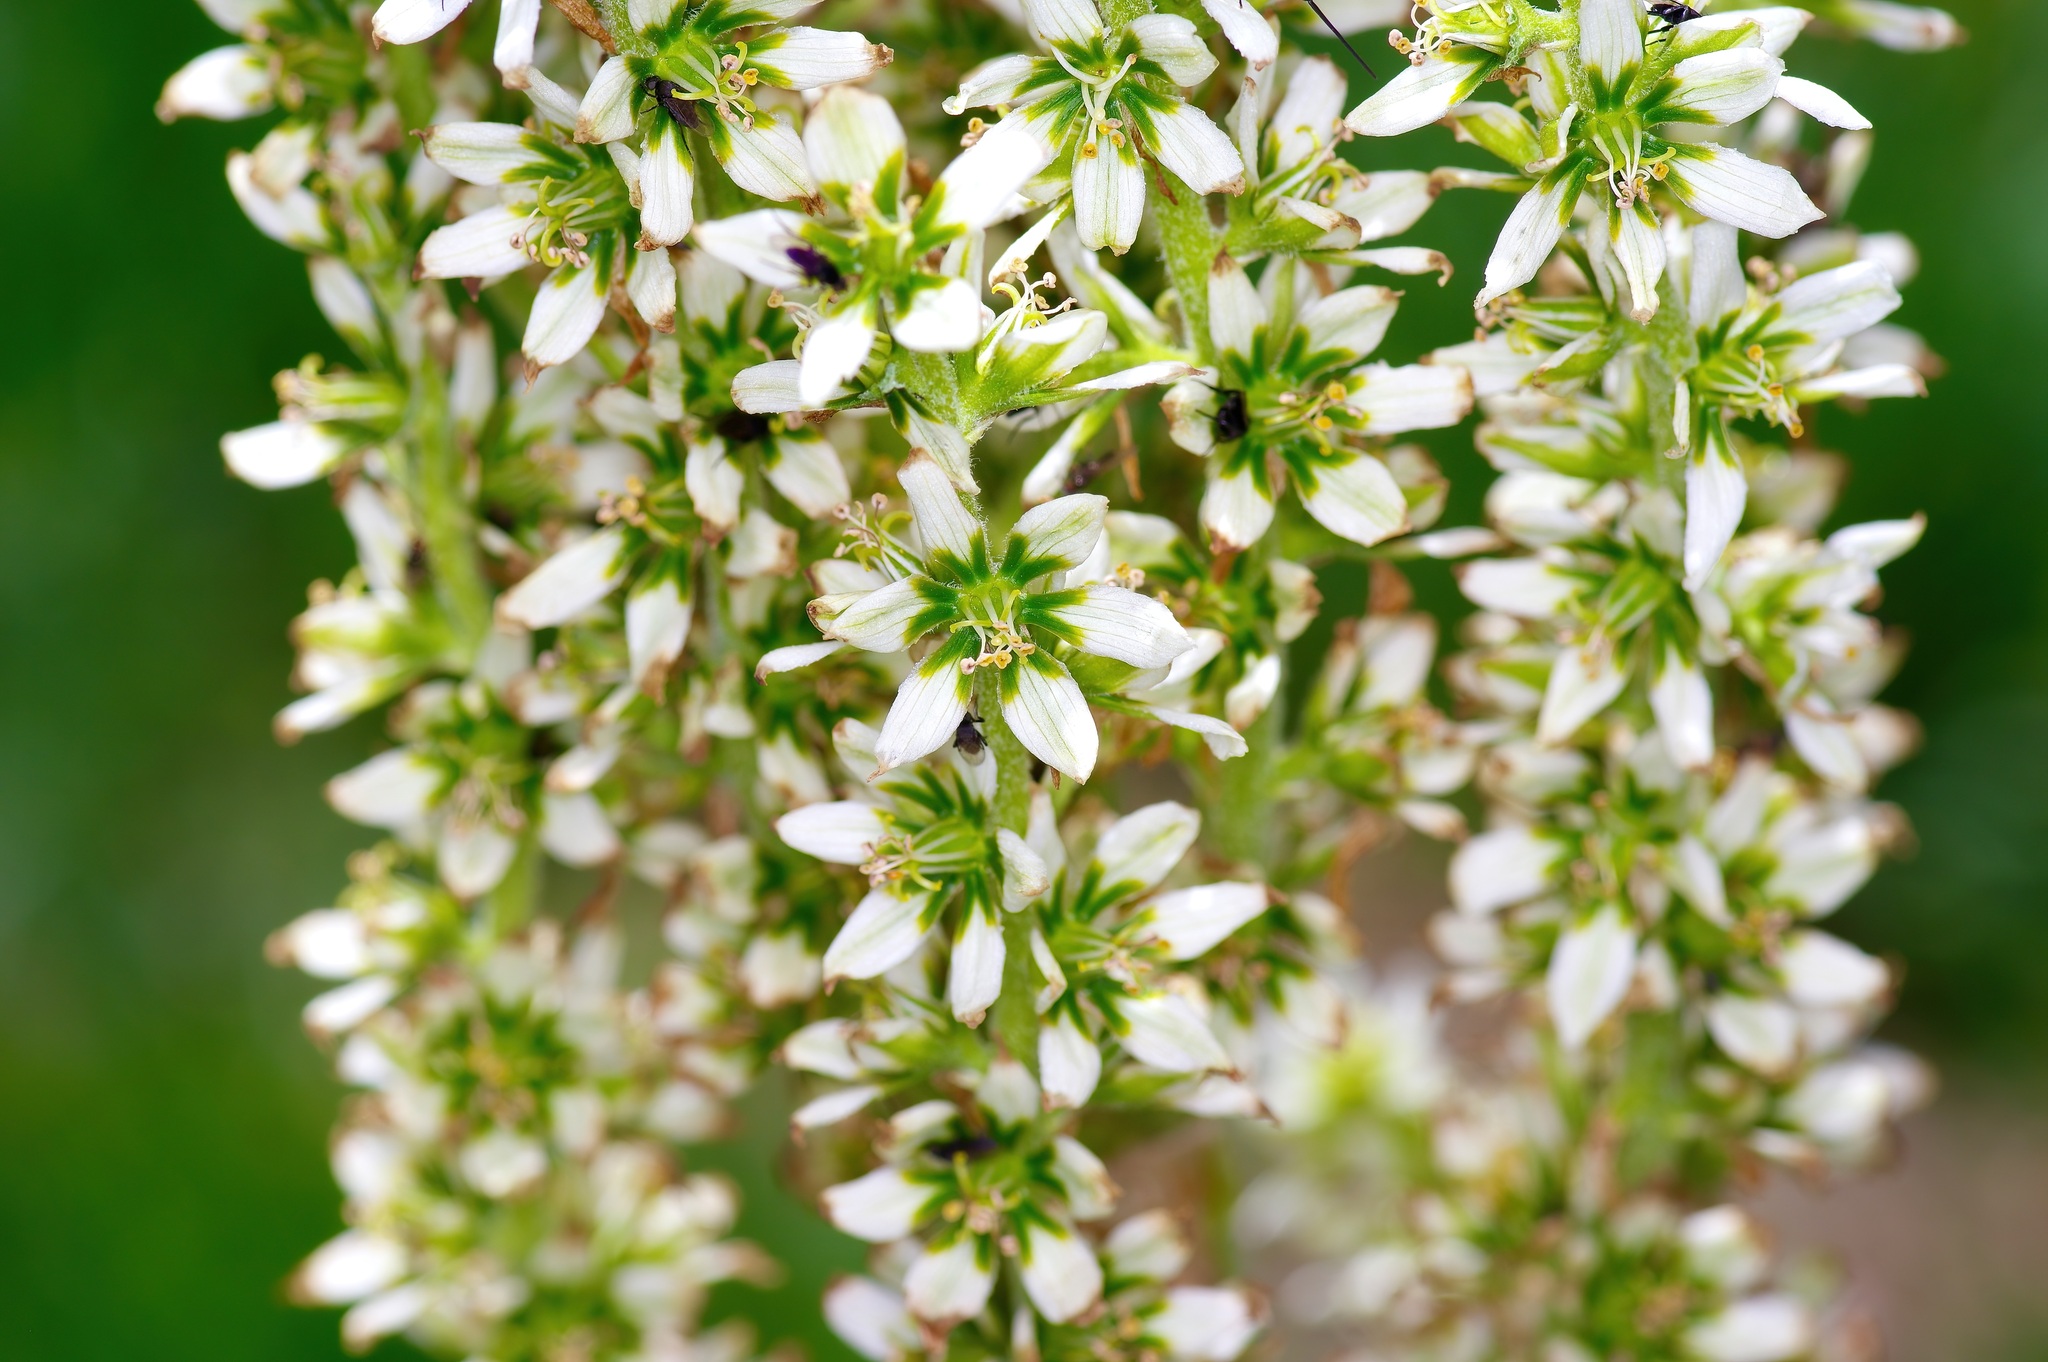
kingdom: Plantae
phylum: Tracheophyta
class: Liliopsida
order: Liliales
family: Melanthiaceae
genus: Veratrum
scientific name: Veratrum californicum
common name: California veratrum
